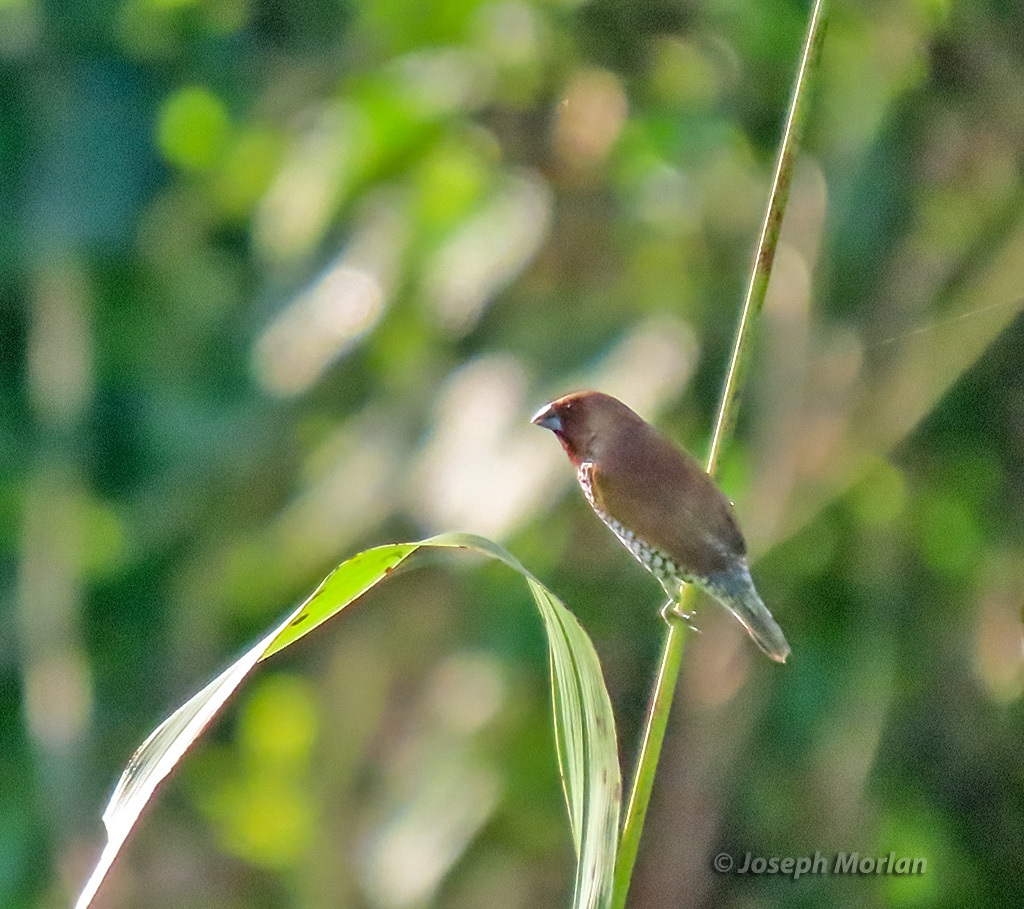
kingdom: Animalia
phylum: Chordata
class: Aves
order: Passeriformes
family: Estrildidae
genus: Lonchura
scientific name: Lonchura punctulata
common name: Scaly-breasted munia
